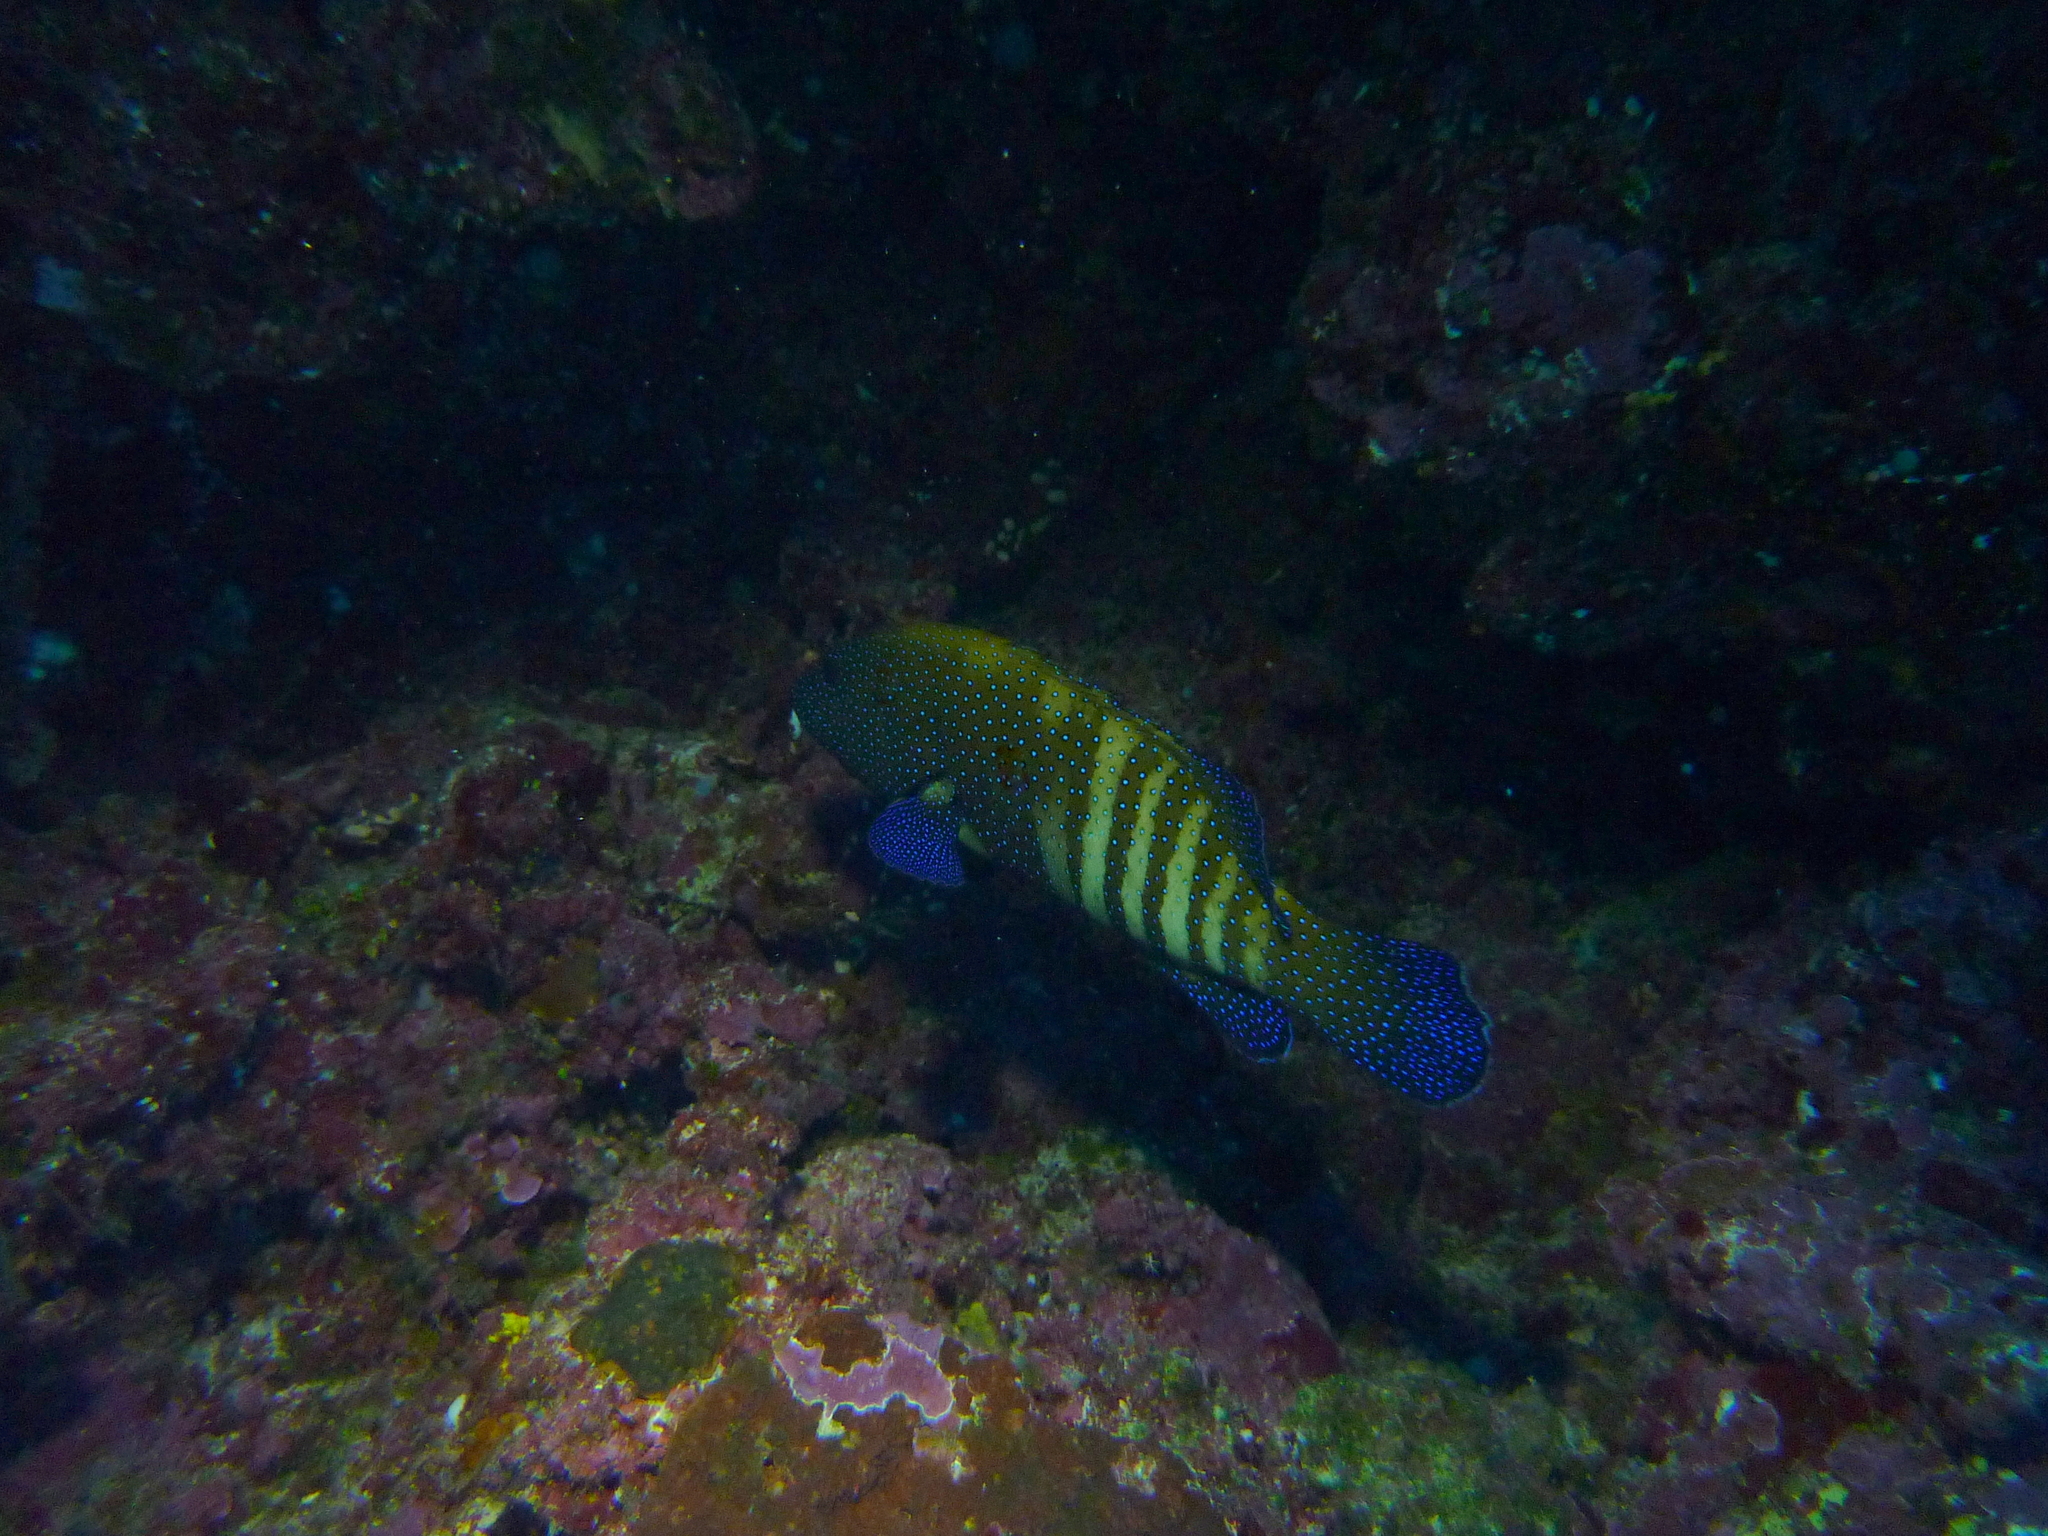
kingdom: Animalia
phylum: Chordata
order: Perciformes
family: Serranidae
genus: Cephalopholis
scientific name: Cephalopholis argus
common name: Peacock grouper
